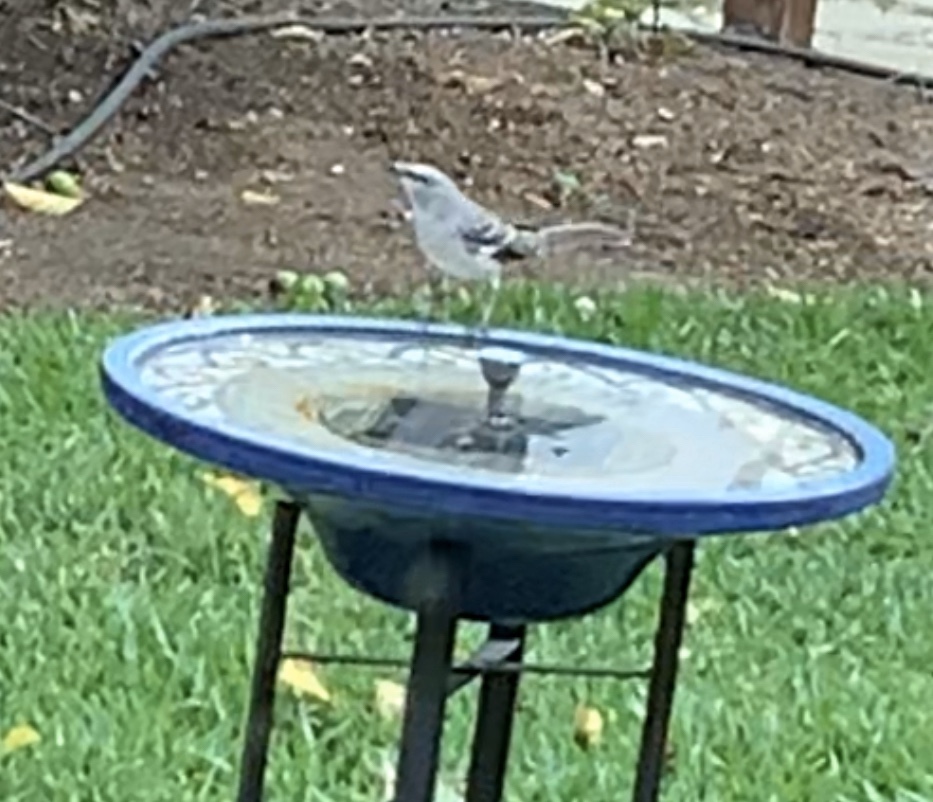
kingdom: Animalia
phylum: Chordata
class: Aves
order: Passeriformes
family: Mimidae
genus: Mimus
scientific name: Mimus polyglottos
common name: Northern mockingbird
